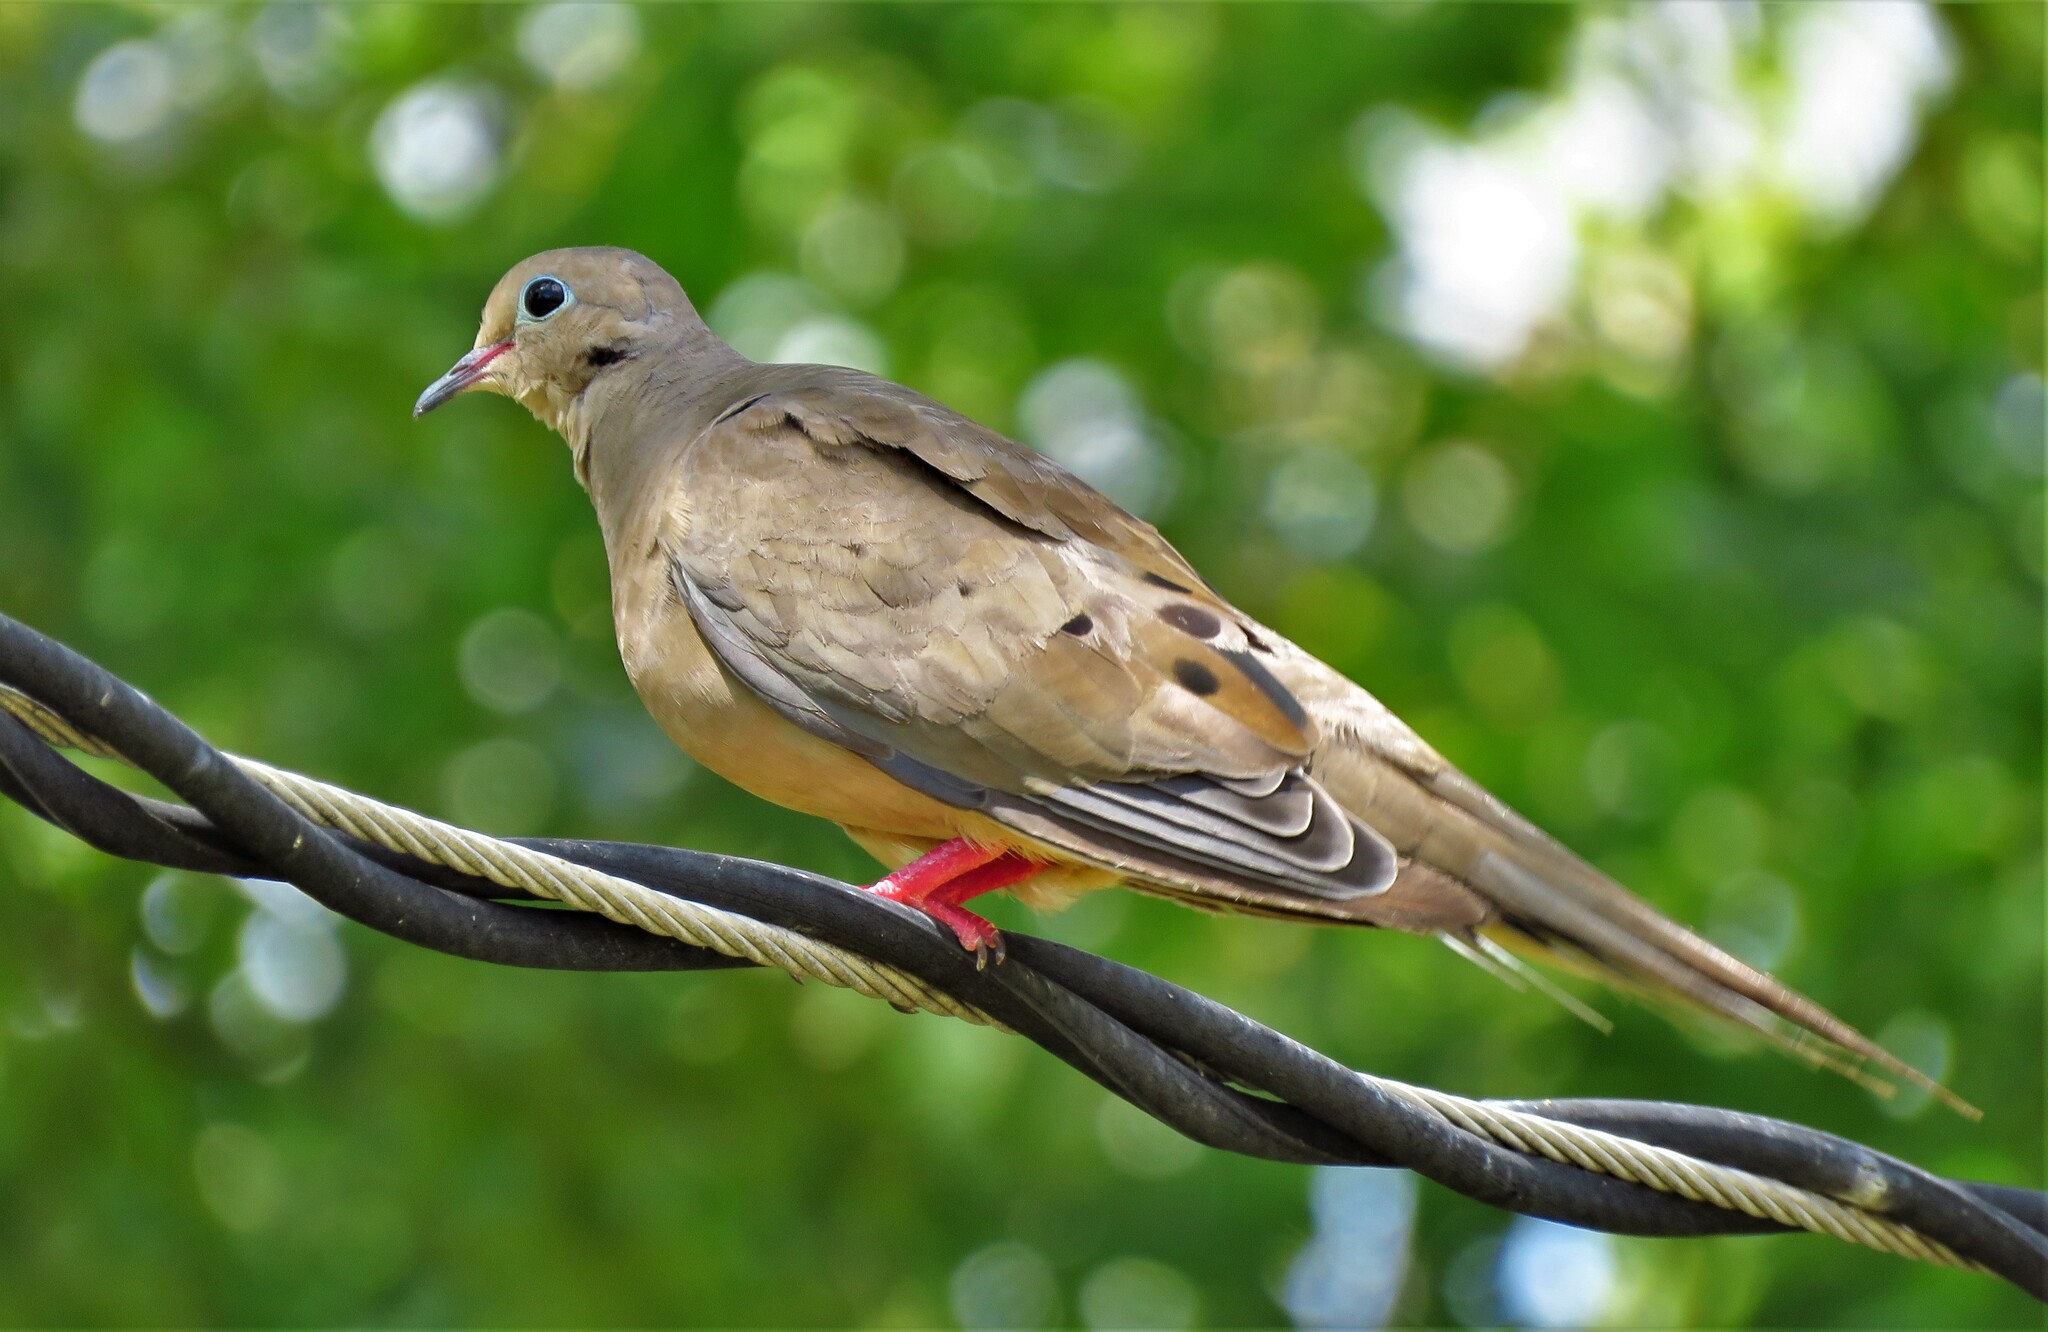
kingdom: Animalia
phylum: Chordata
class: Aves
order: Columbiformes
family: Columbidae
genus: Zenaida
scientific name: Zenaida macroura
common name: Mourning dove
